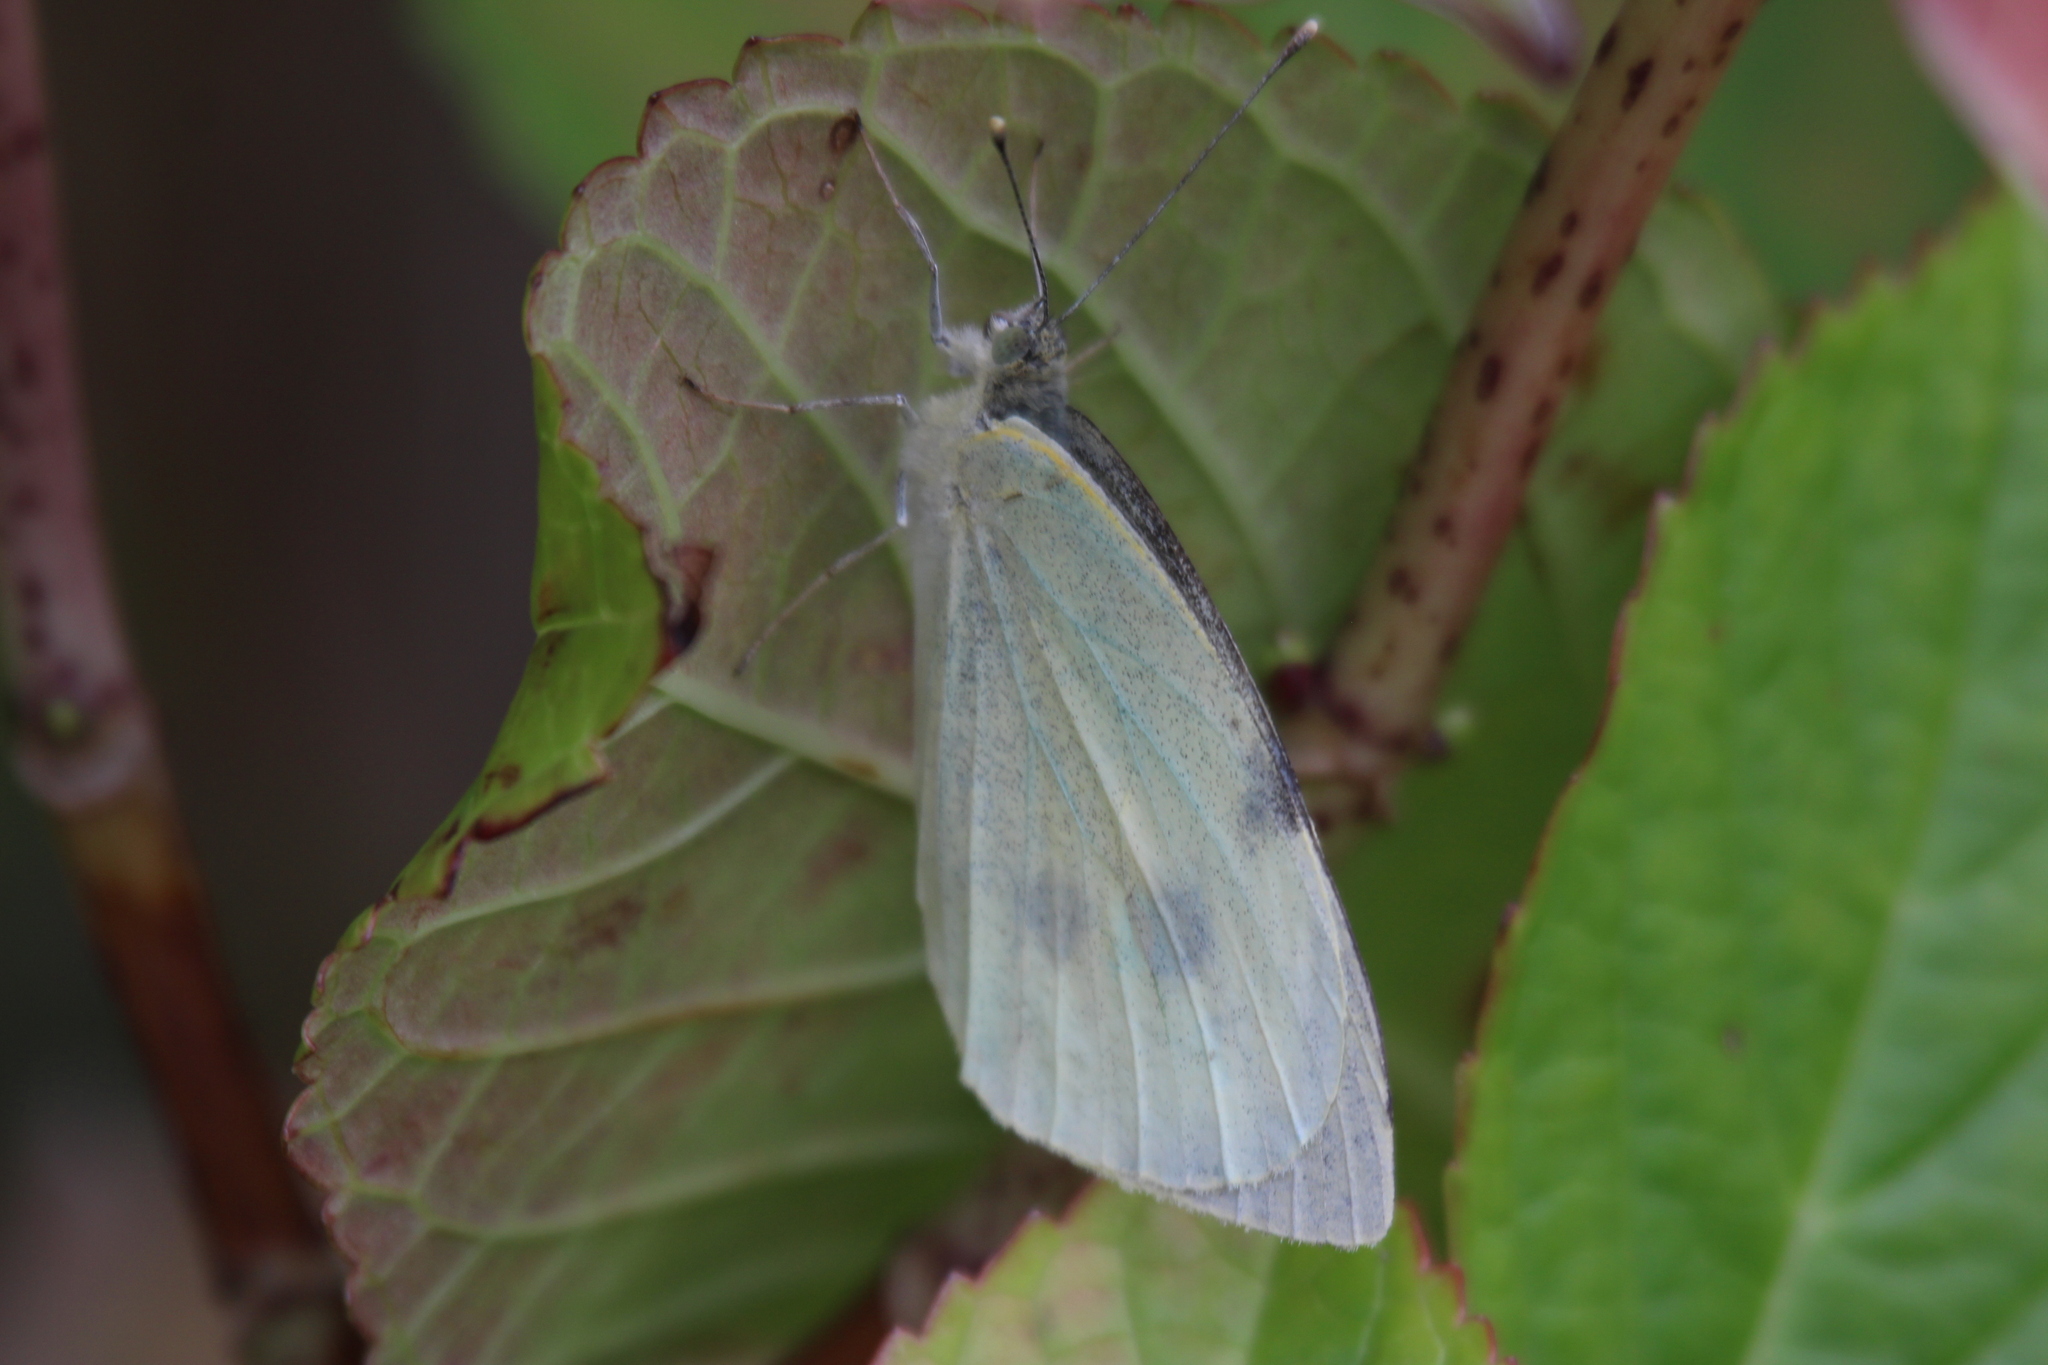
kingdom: Animalia
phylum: Arthropoda
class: Insecta
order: Lepidoptera
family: Pieridae
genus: Pieris
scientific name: Pieris brassicae
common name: Large white
